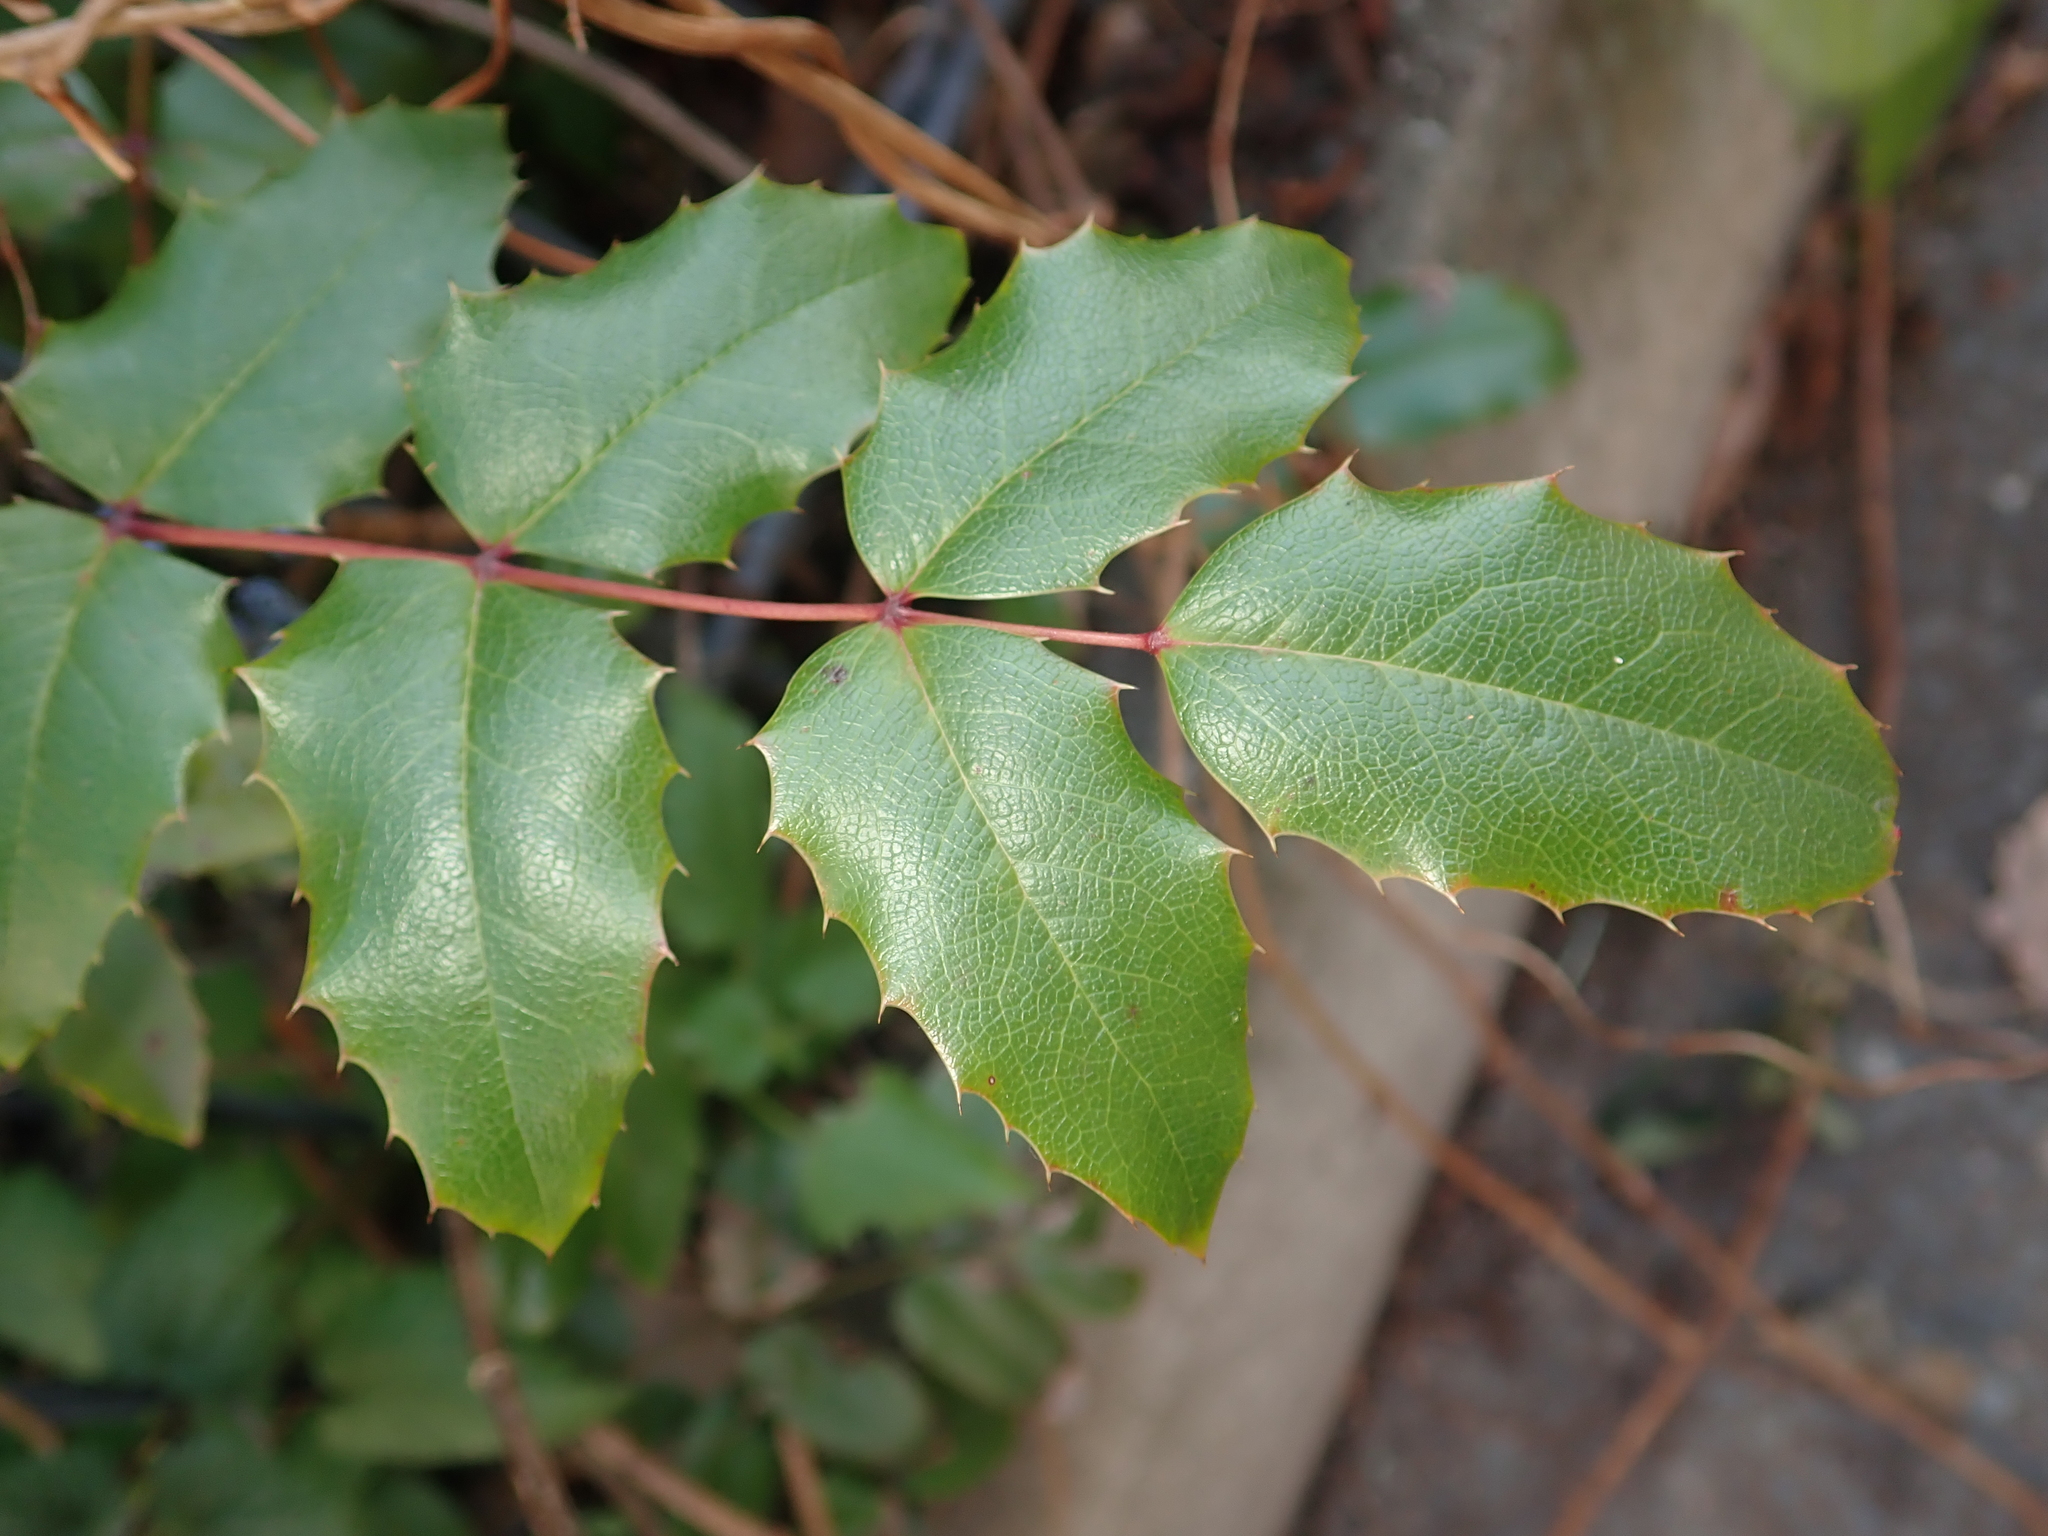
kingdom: Plantae
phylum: Tracheophyta
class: Magnoliopsida
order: Ranunculales
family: Berberidaceae
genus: Mahonia
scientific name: Mahonia aquifolium
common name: Oregon-grape
